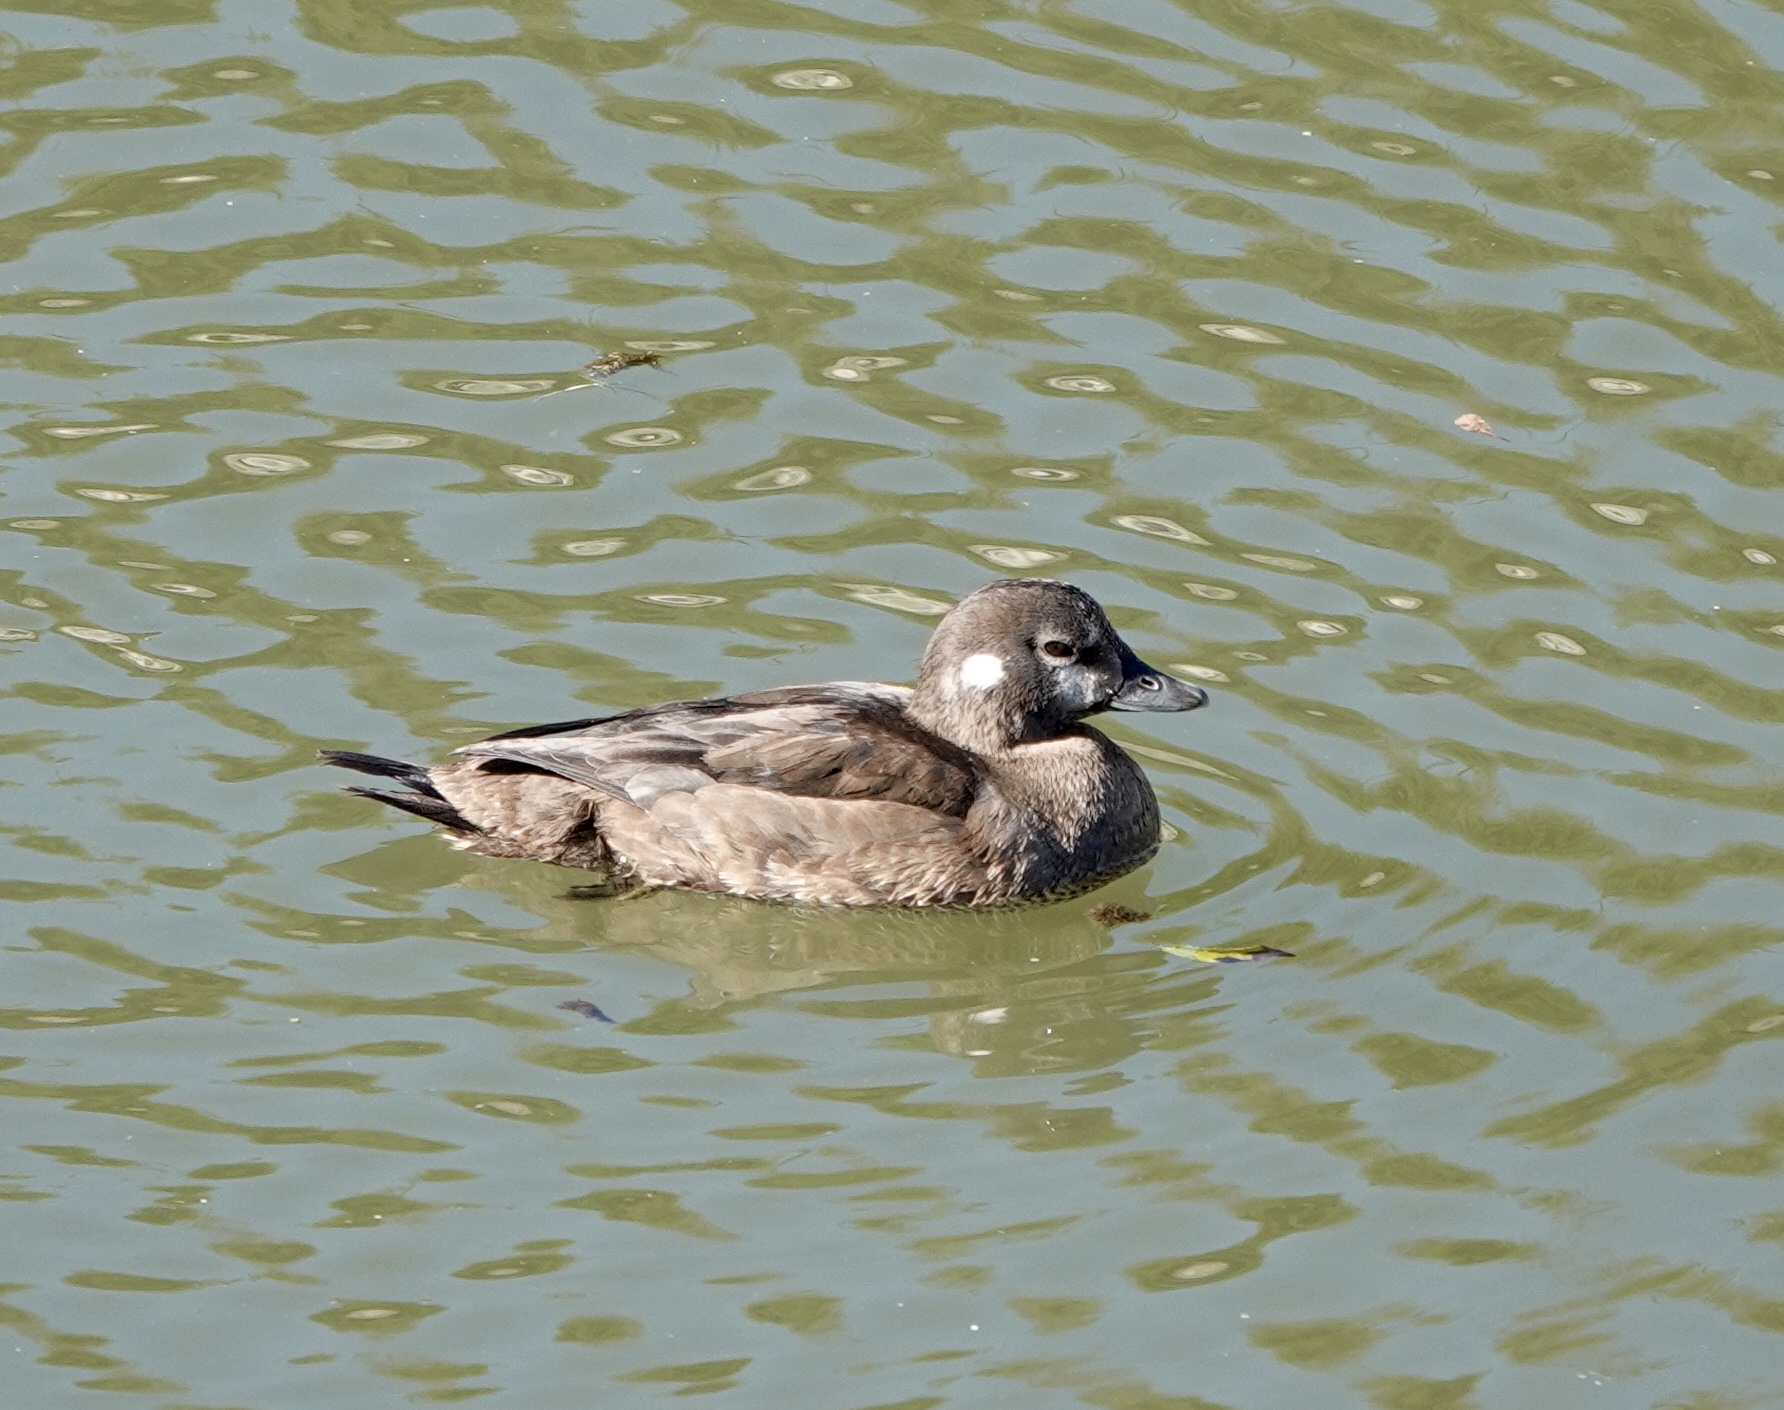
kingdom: Animalia
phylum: Chordata
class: Aves
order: Anseriformes
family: Anatidae
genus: Histrionicus
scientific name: Histrionicus histrionicus
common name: Harlequin duck
